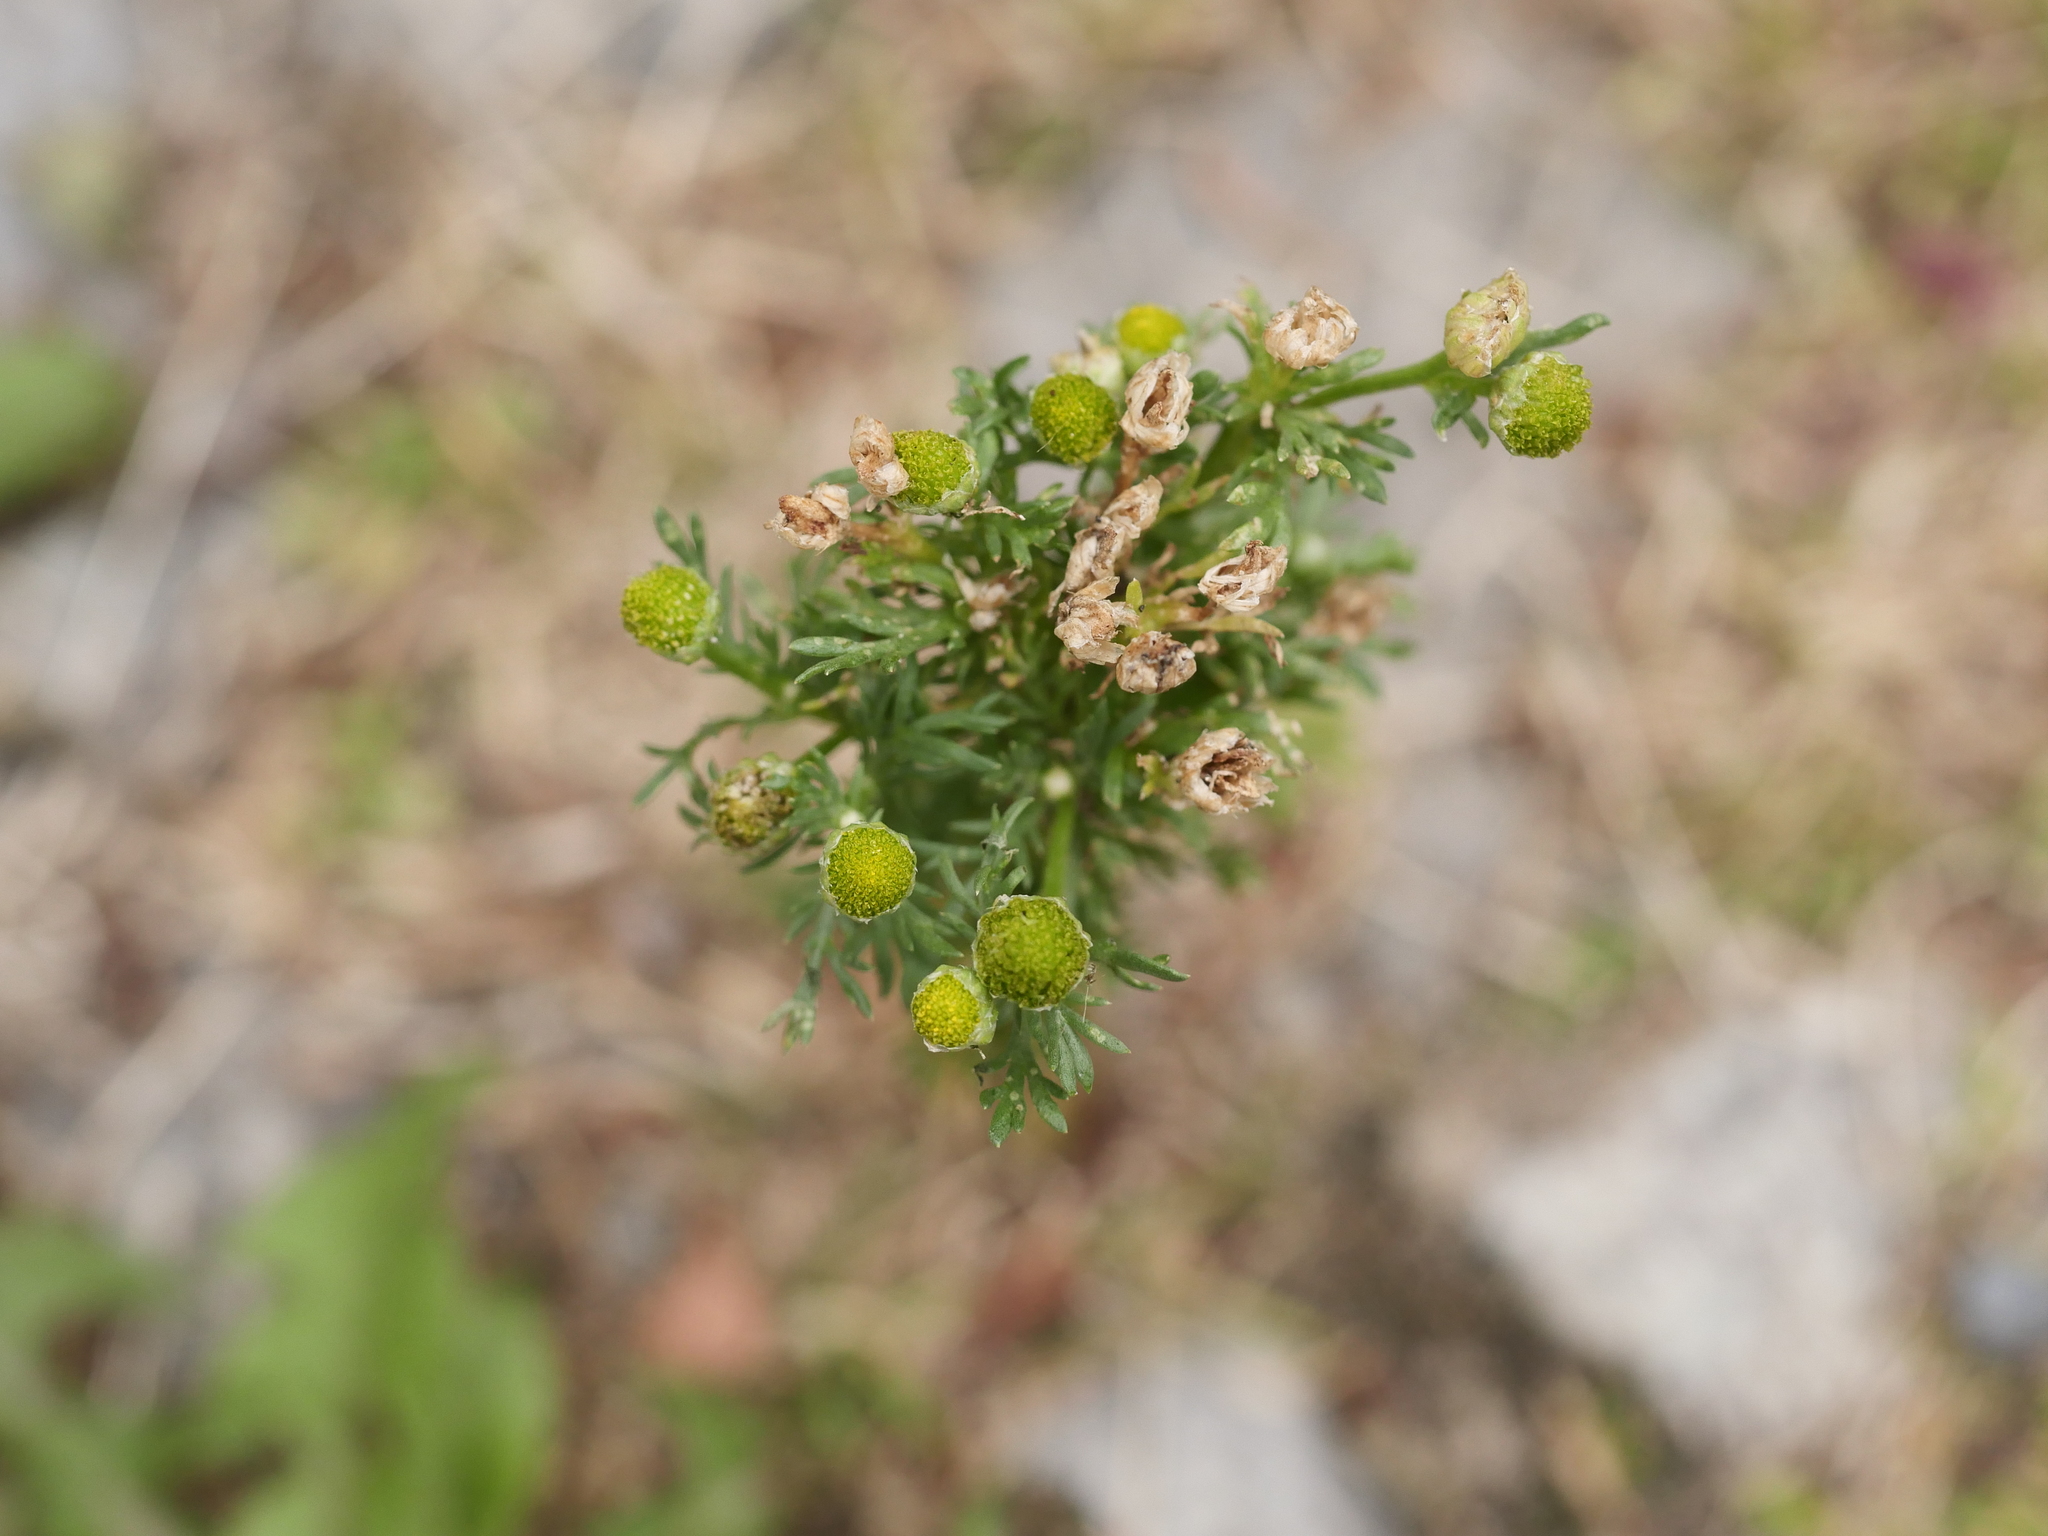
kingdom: Plantae
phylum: Tracheophyta
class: Magnoliopsida
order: Asterales
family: Asteraceae
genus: Matricaria
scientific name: Matricaria discoidea
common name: Disc mayweed
